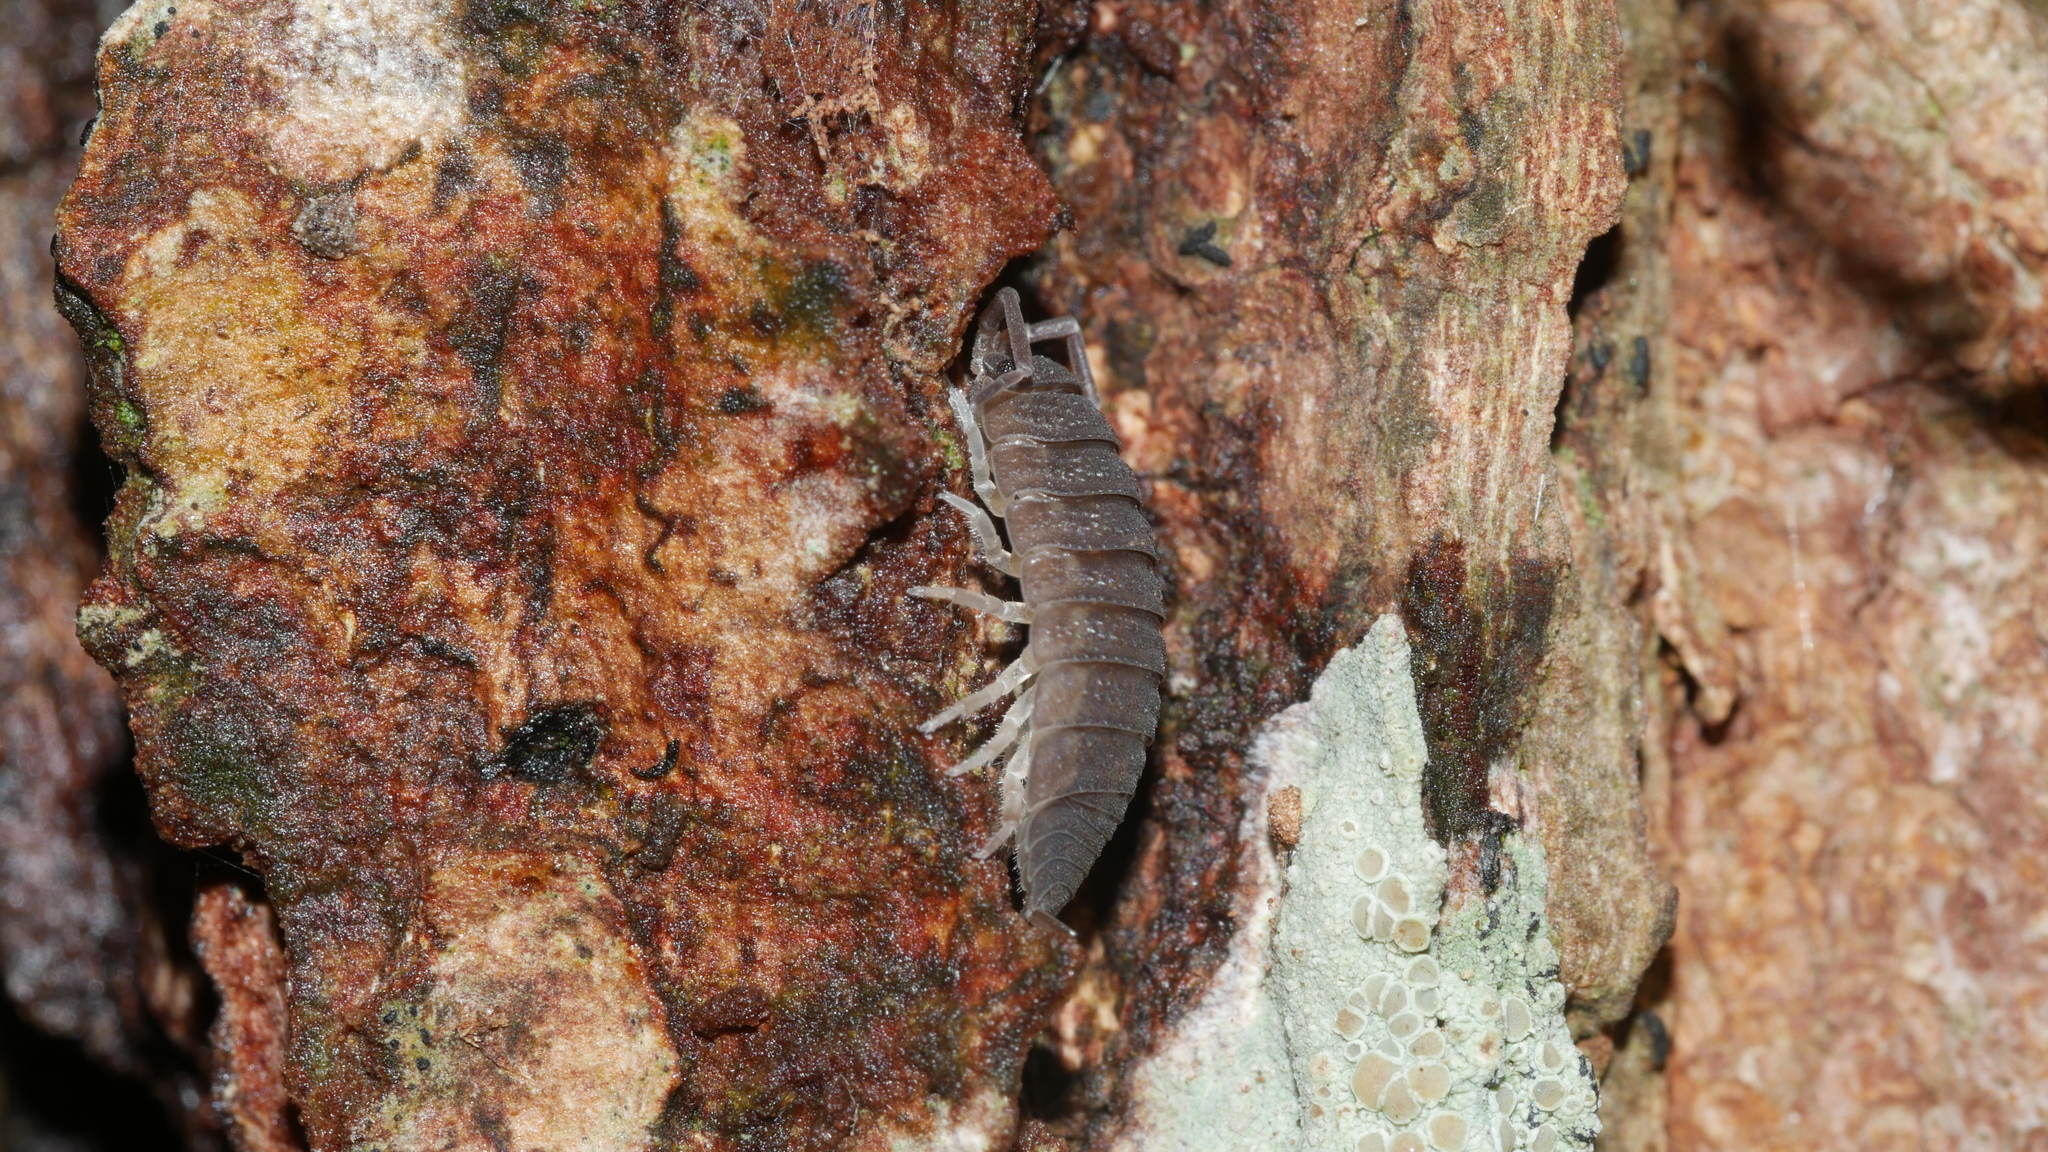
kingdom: Animalia
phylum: Arthropoda
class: Malacostraca
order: Isopoda
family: Porcellionidae
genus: Porcellio
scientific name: Porcellio scaber
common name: Common rough woodlouse
